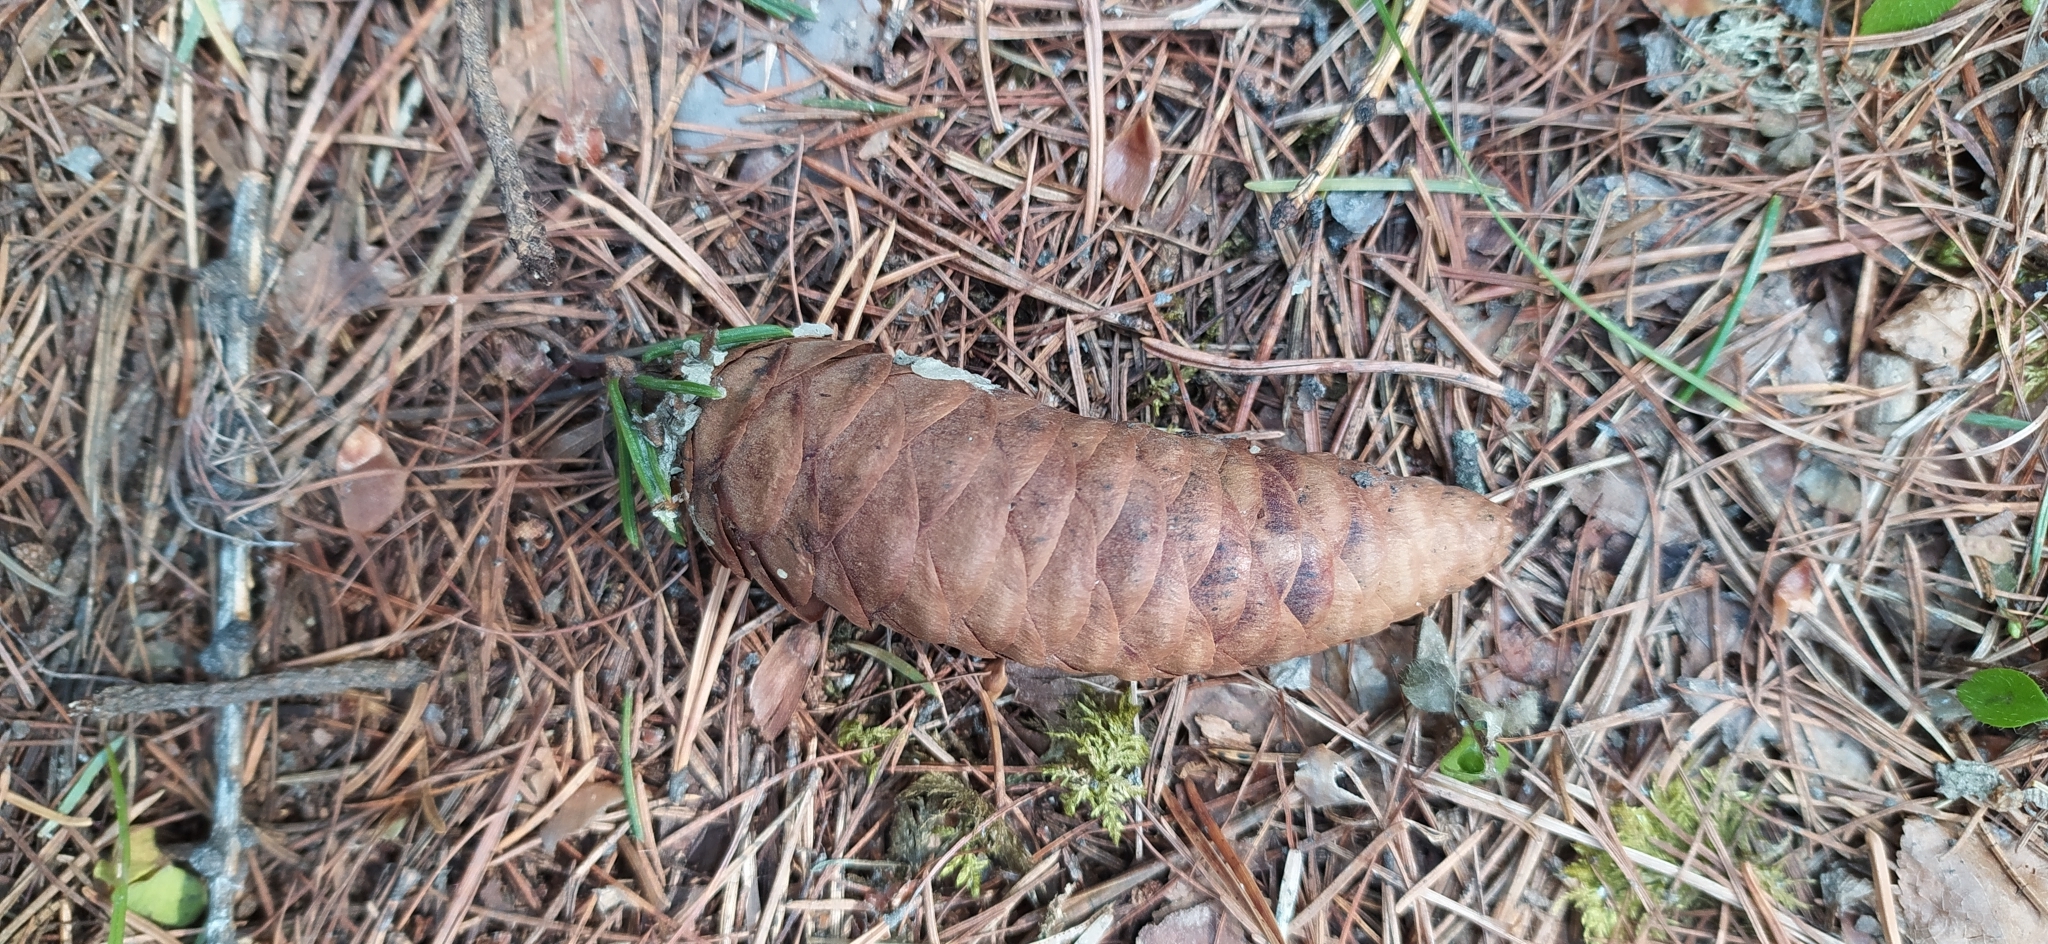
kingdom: Plantae
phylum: Tracheophyta
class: Pinopsida
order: Pinales
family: Pinaceae
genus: Picea
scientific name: Picea obovata
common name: Siberian spruce
